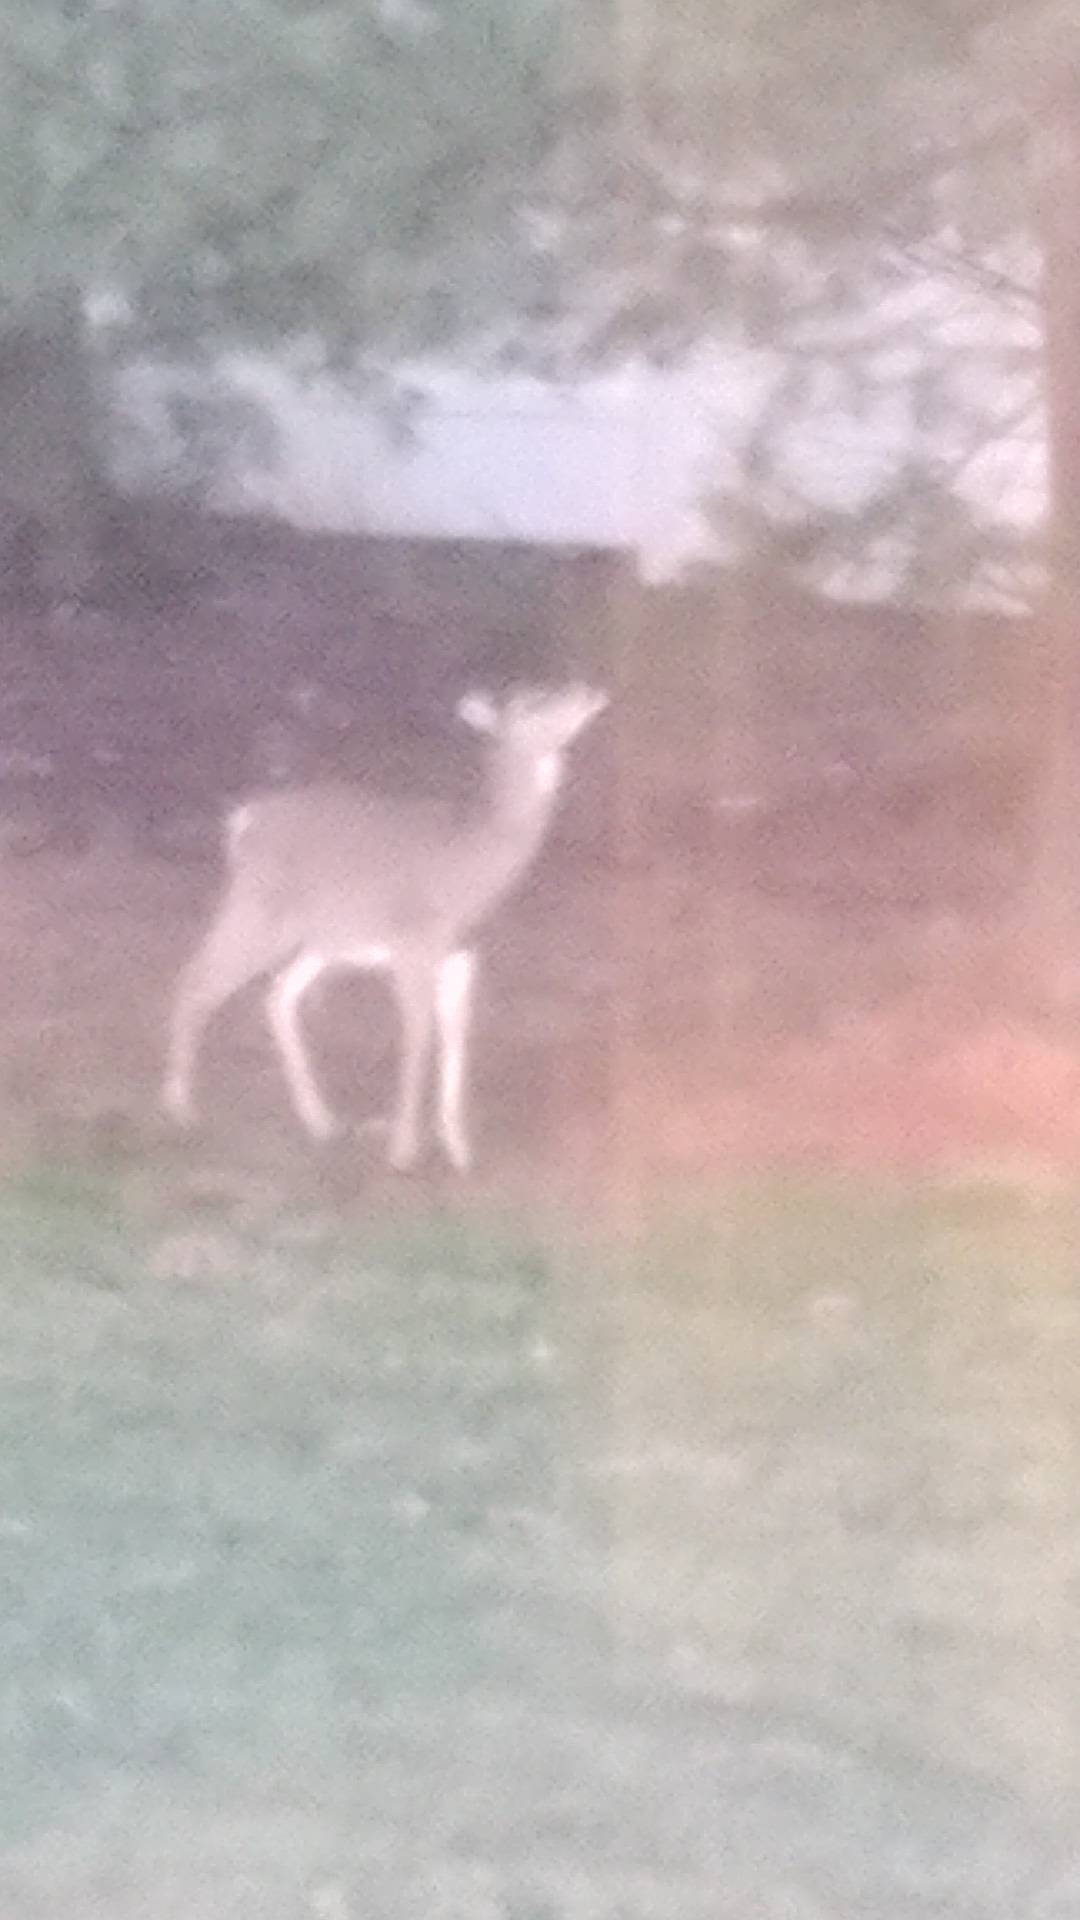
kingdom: Animalia
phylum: Chordata
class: Mammalia
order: Artiodactyla
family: Cervidae
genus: Odocoileus
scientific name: Odocoileus virginianus
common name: White-tailed deer
